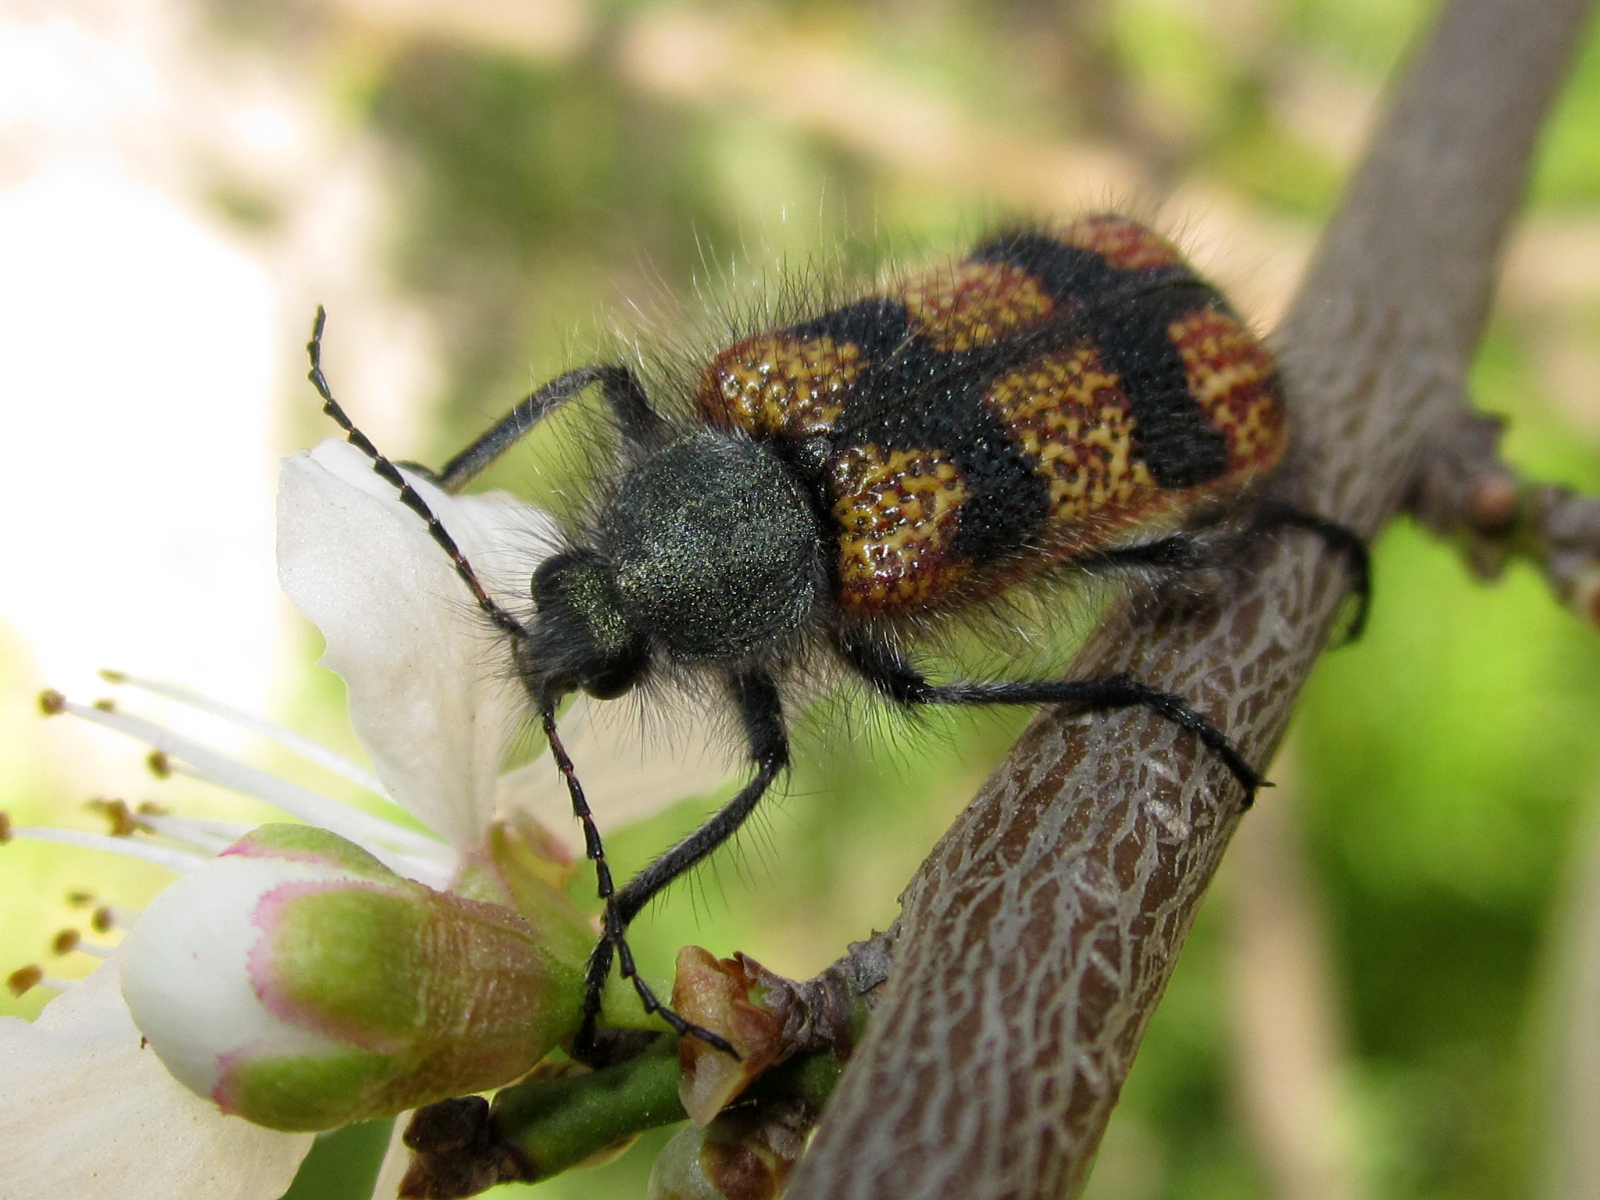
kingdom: Animalia
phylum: Arthropoda
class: Insecta
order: Coleoptera
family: Melyridae
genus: Astylus
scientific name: Astylus
